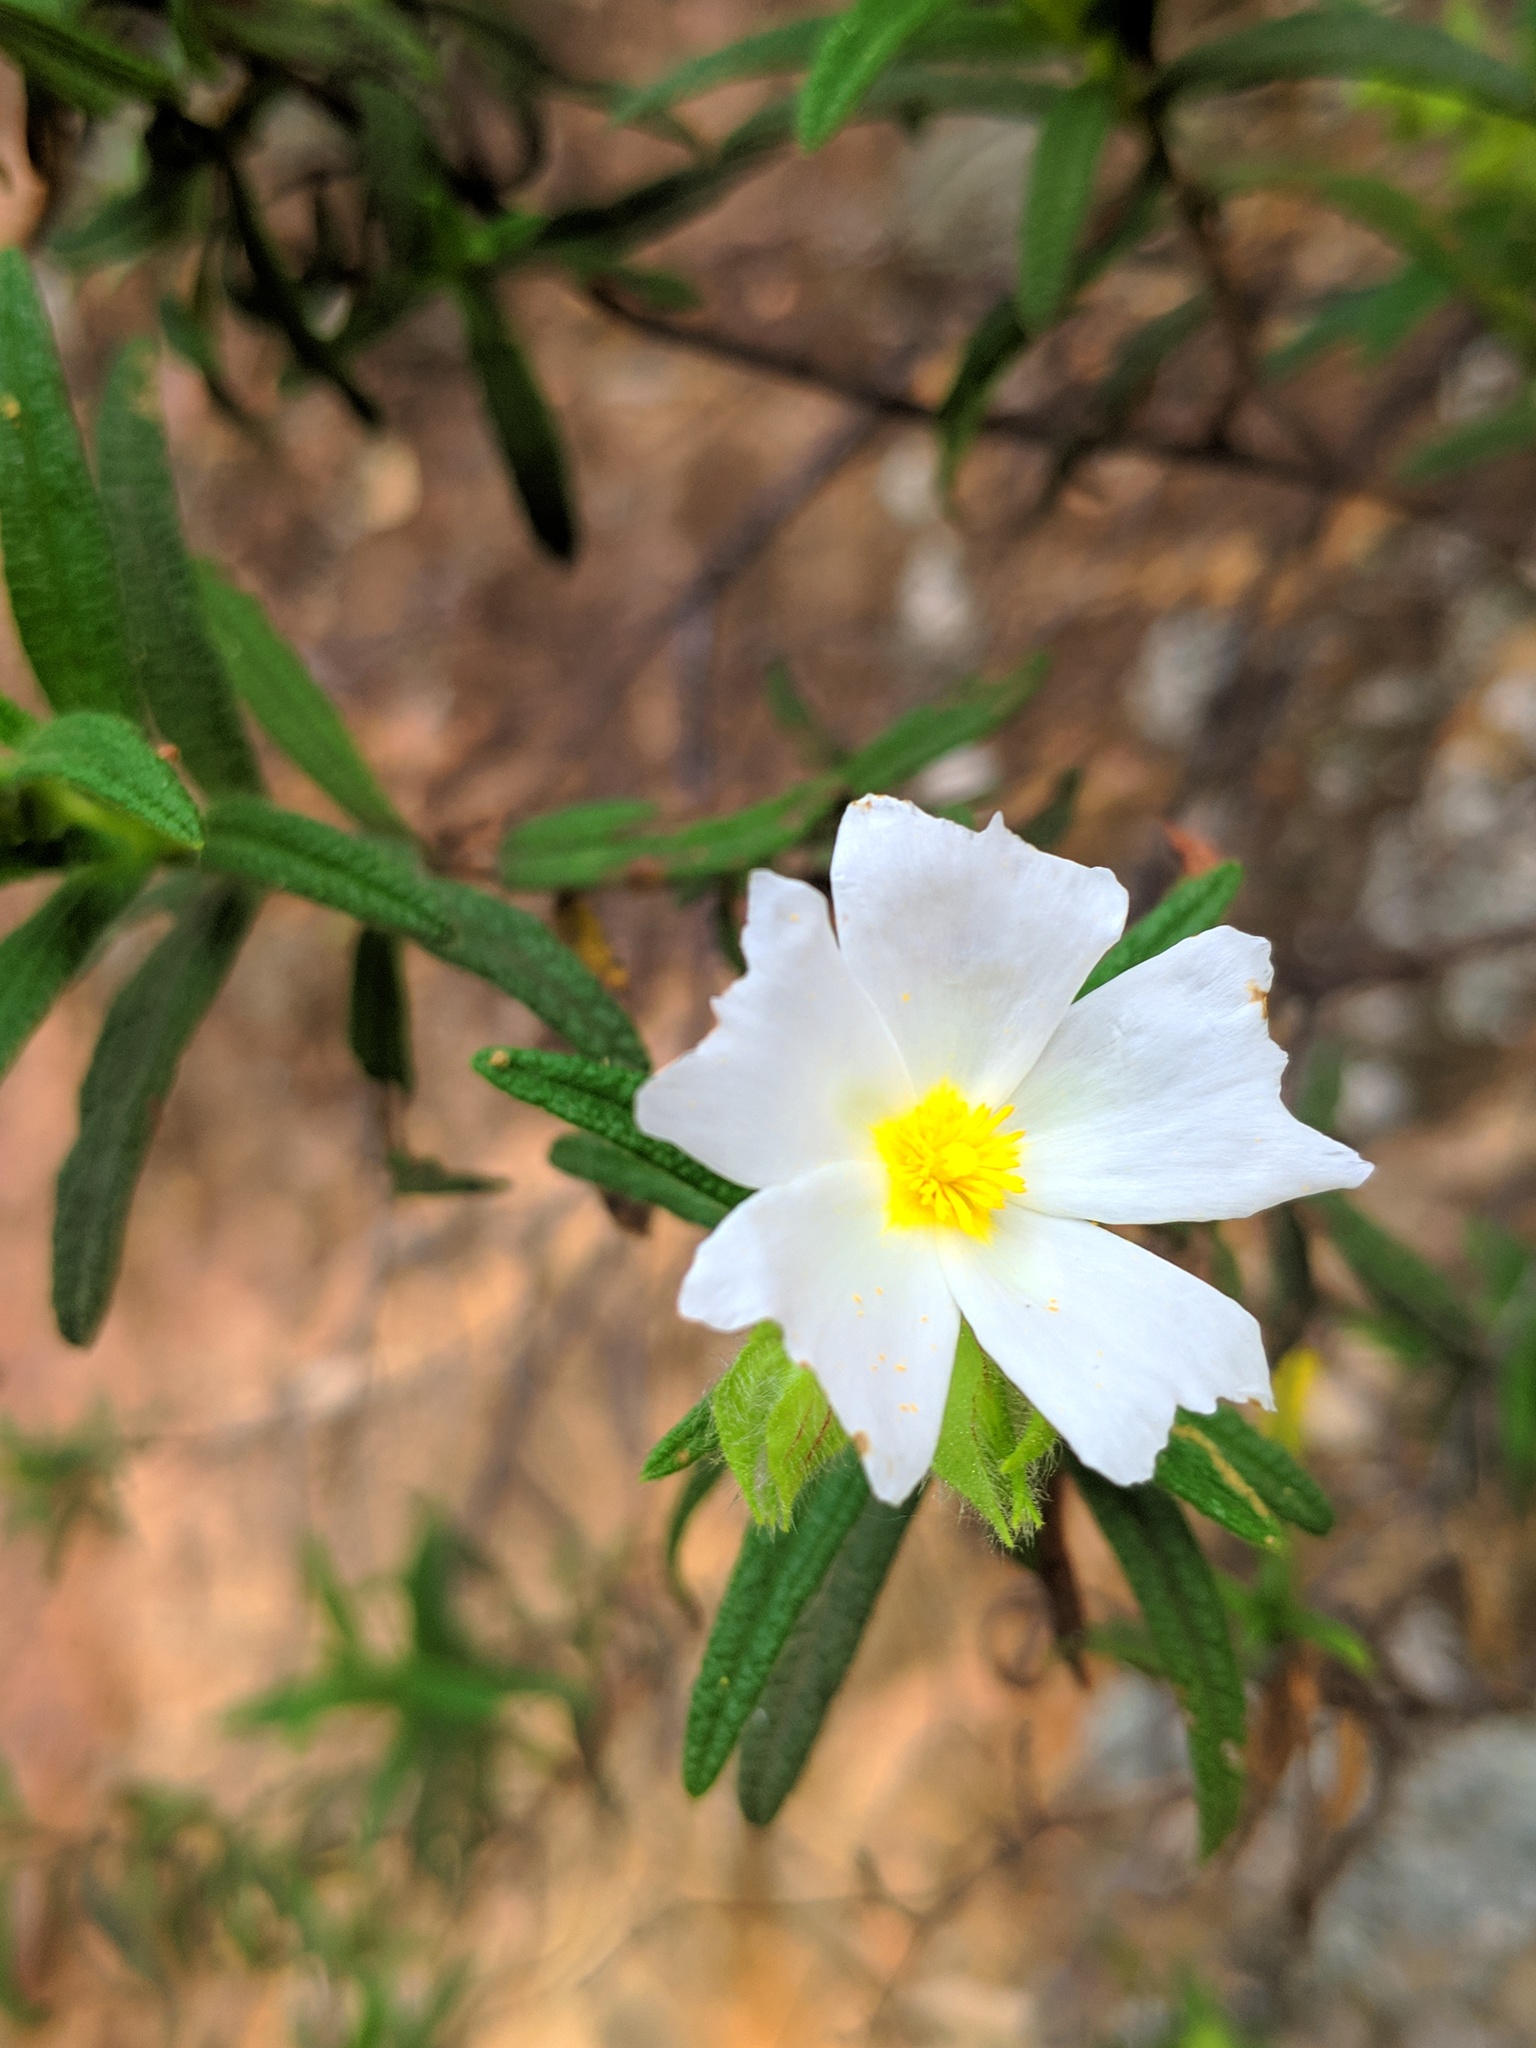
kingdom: Plantae
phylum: Tracheophyta
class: Magnoliopsida
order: Malvales
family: Cistaceae
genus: Cistus
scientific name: Cistus monspeliensis
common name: Montpelier cistus
